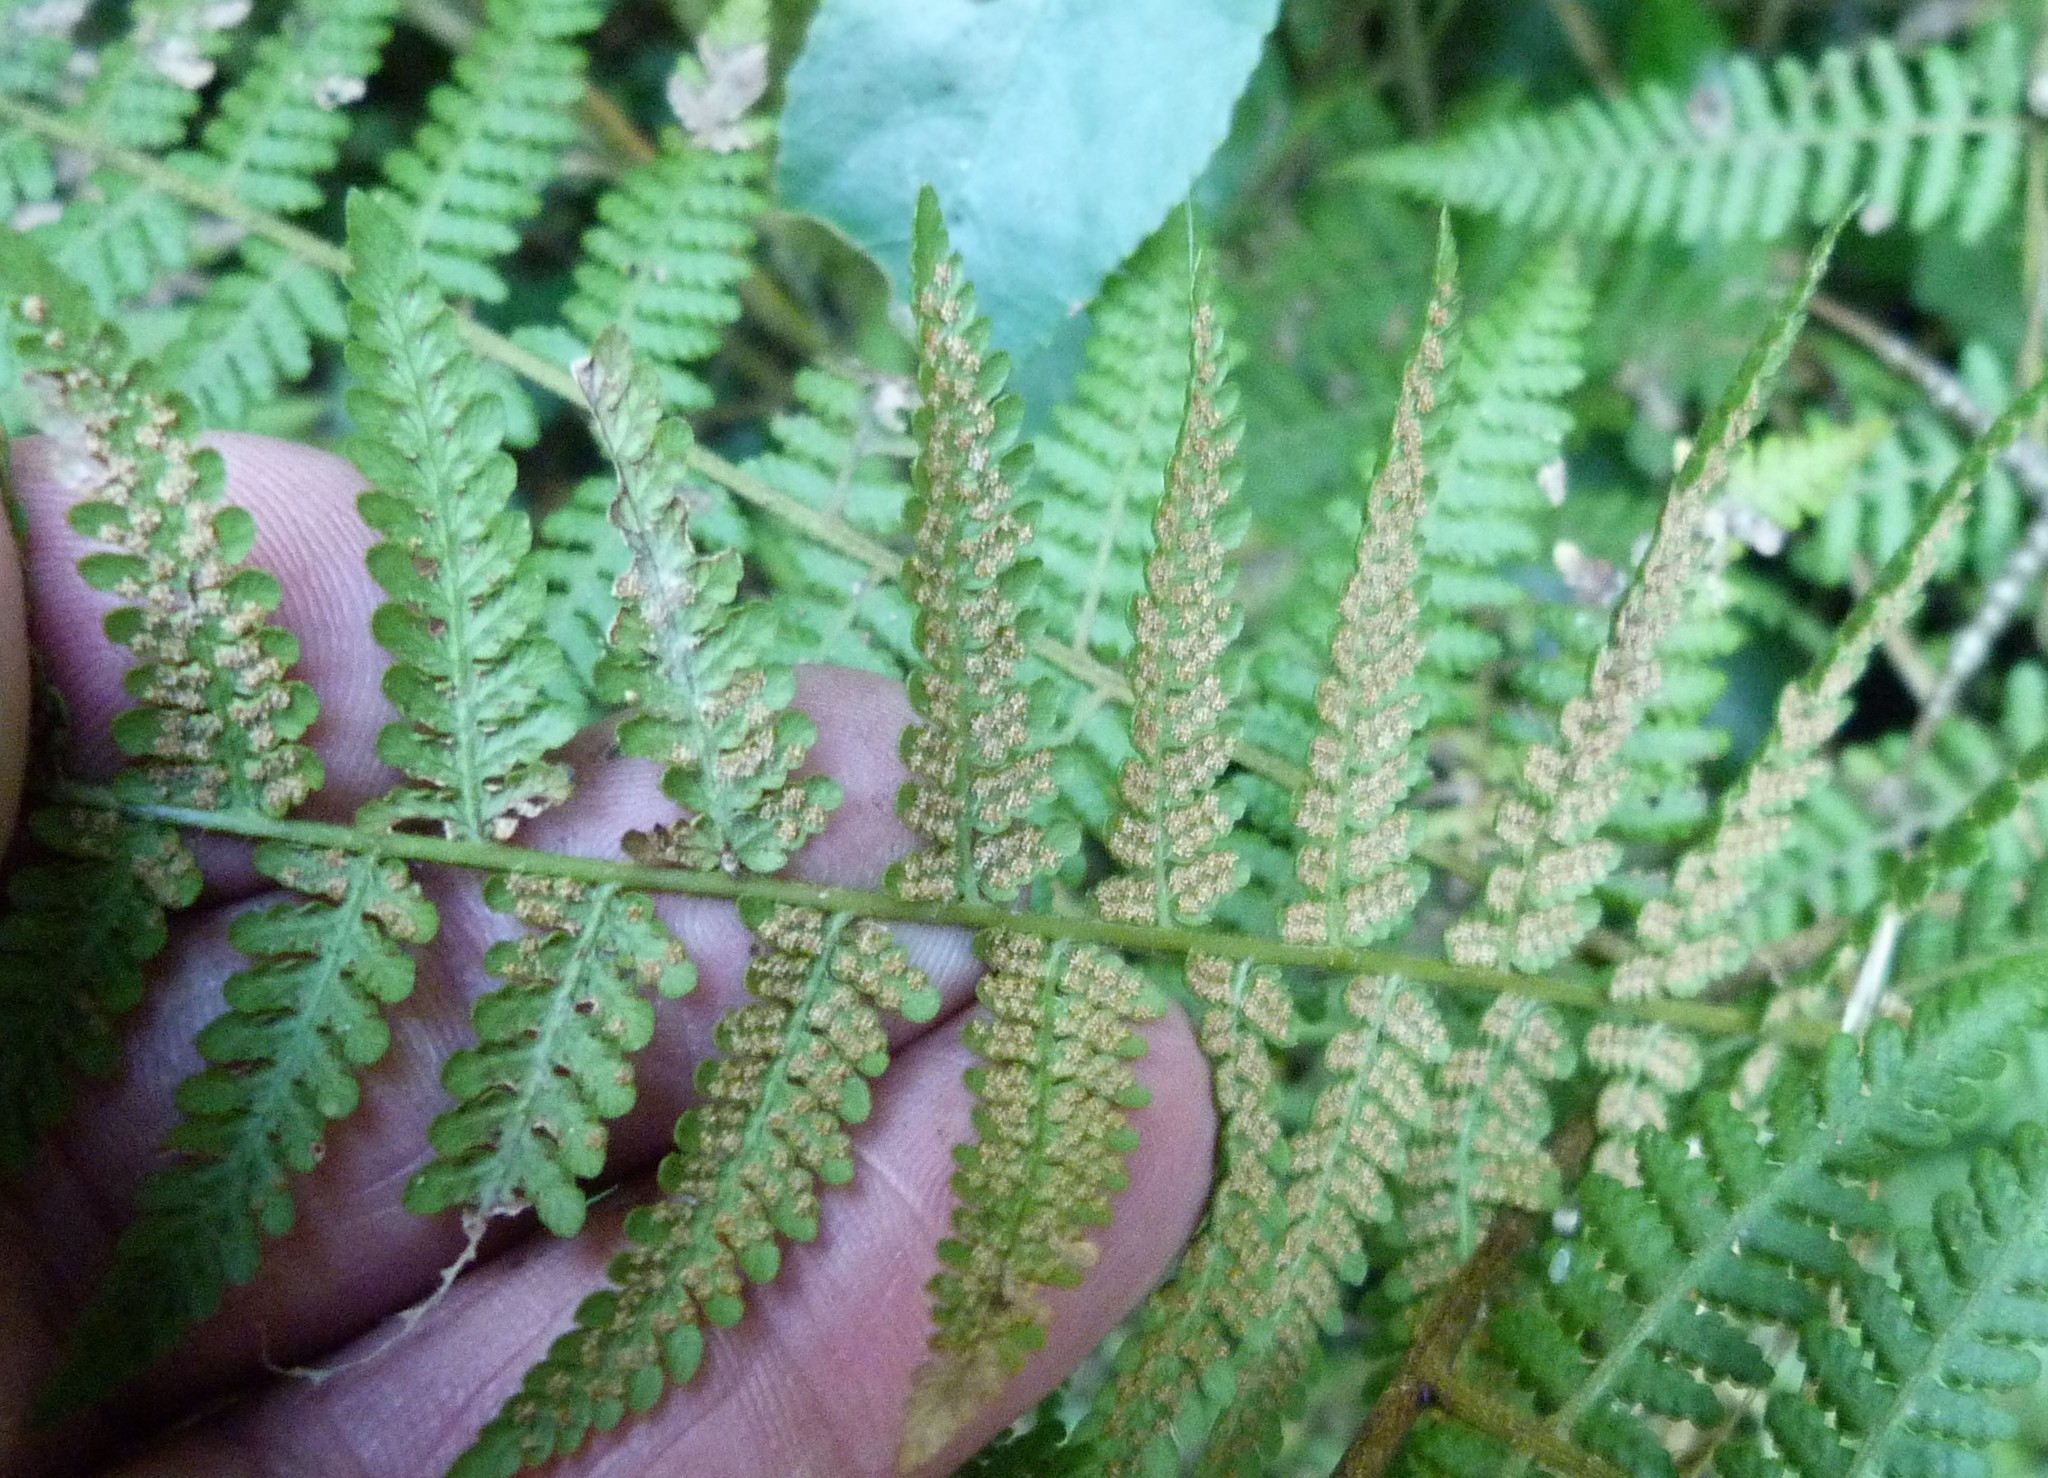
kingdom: Plantae
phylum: Tracheophyta
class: Polypodiopsida
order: Polypodiales
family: Dennstaedtiaceae
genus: Hypolepis
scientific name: Hypolepis ambigua
